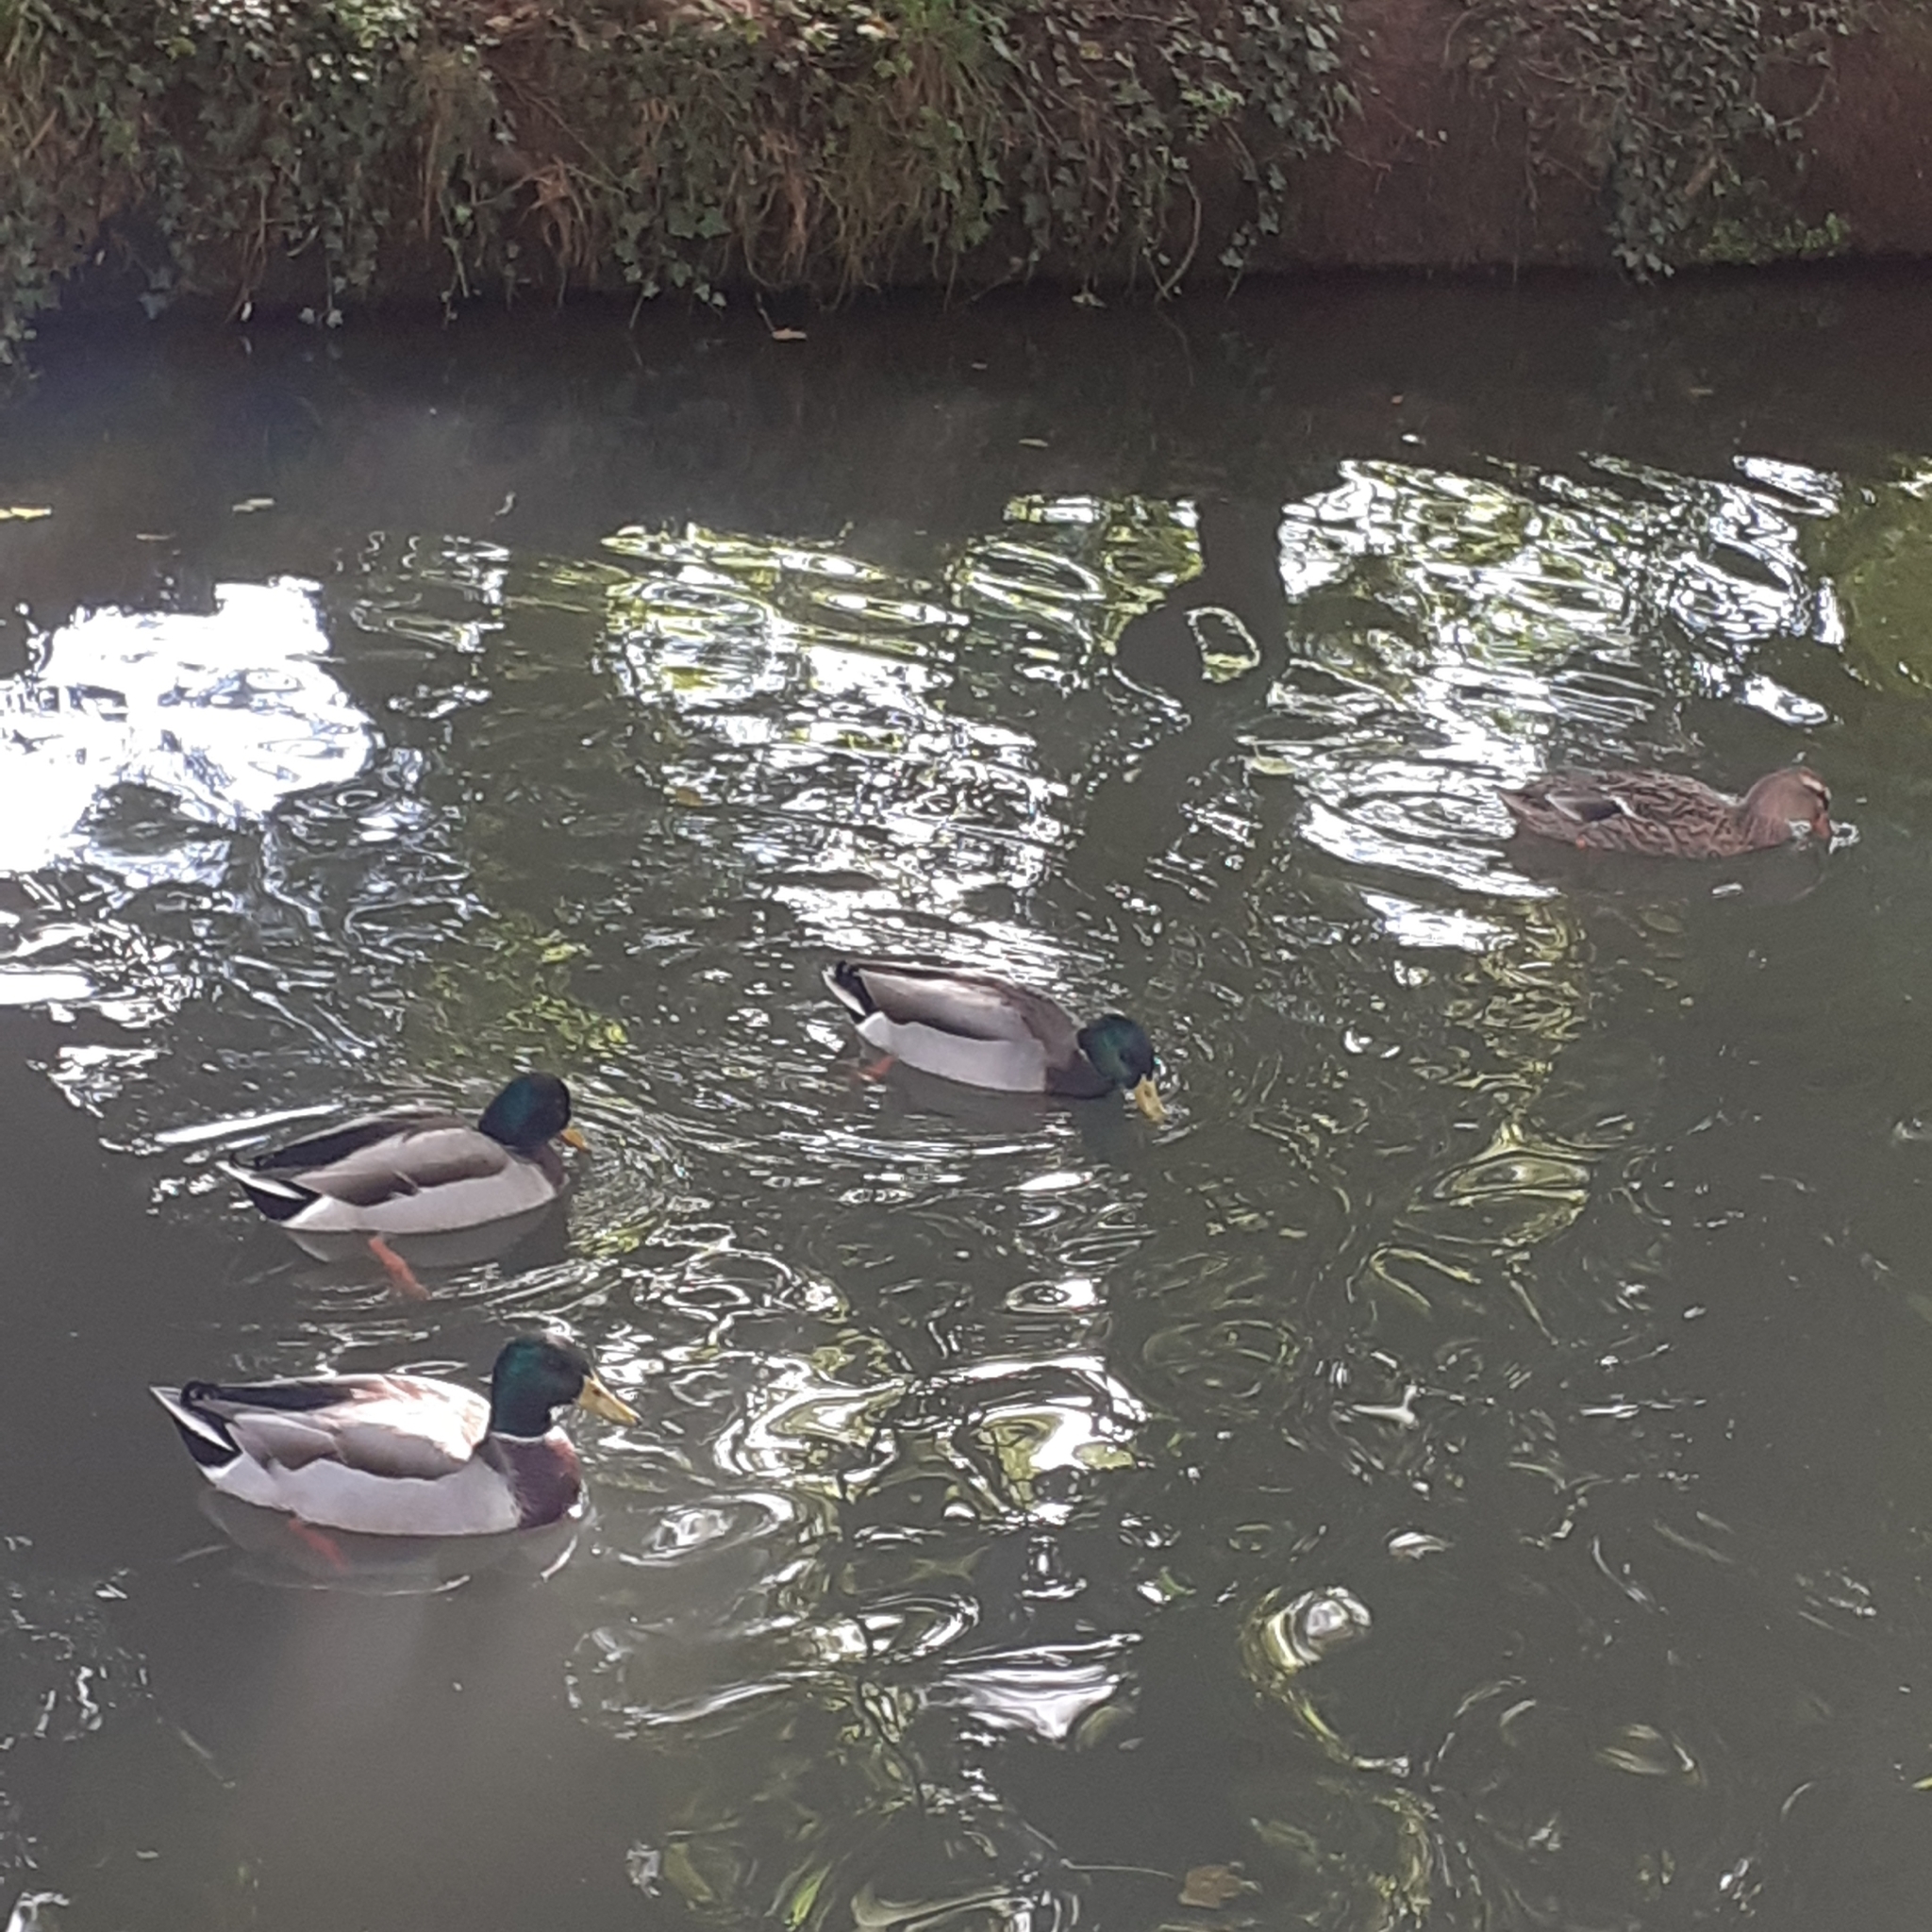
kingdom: Animalia
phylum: Chordata
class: Aves
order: Anseriformes
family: Anatidae
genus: Anas
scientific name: Anas platyrhynchos
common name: Mallard
